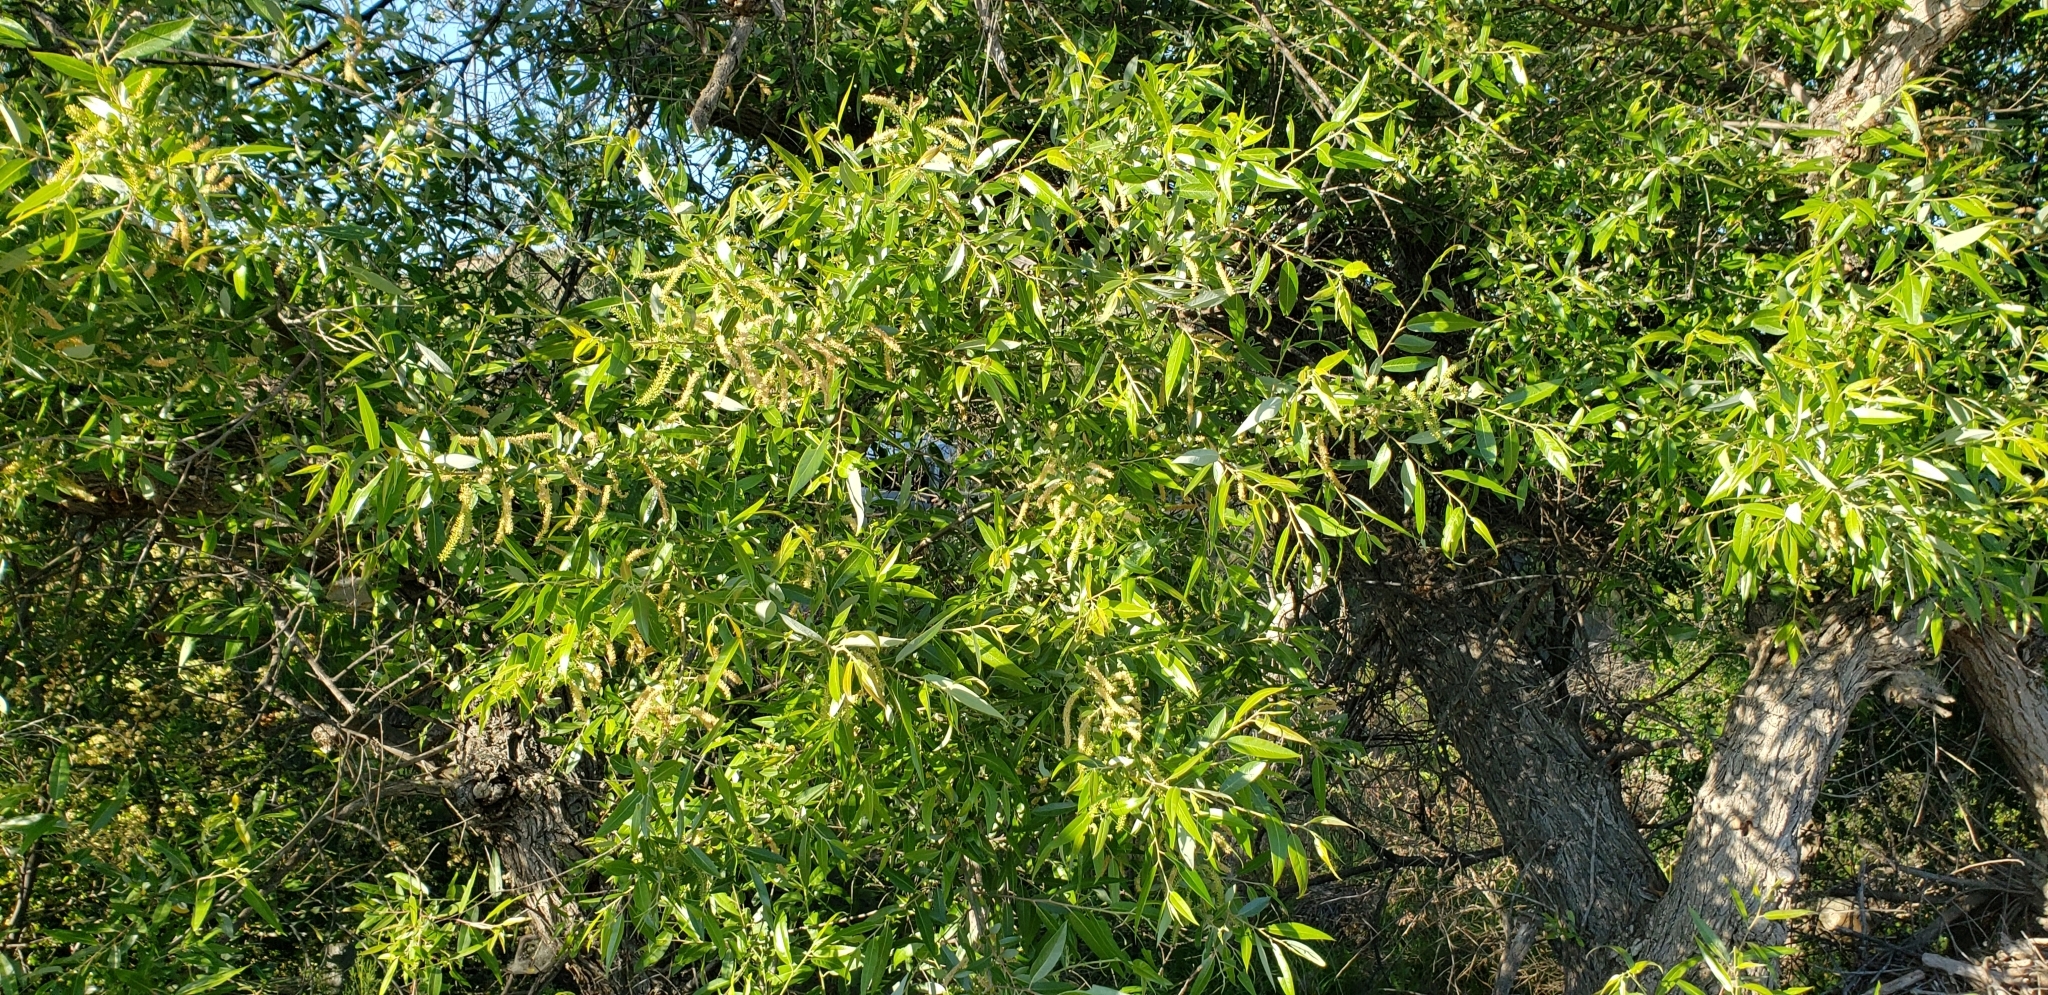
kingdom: Plantae
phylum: Tracheophyta
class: Magnoliopsida
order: Malpighiales
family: Salicaceae
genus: Salix
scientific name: Salix laevigata
